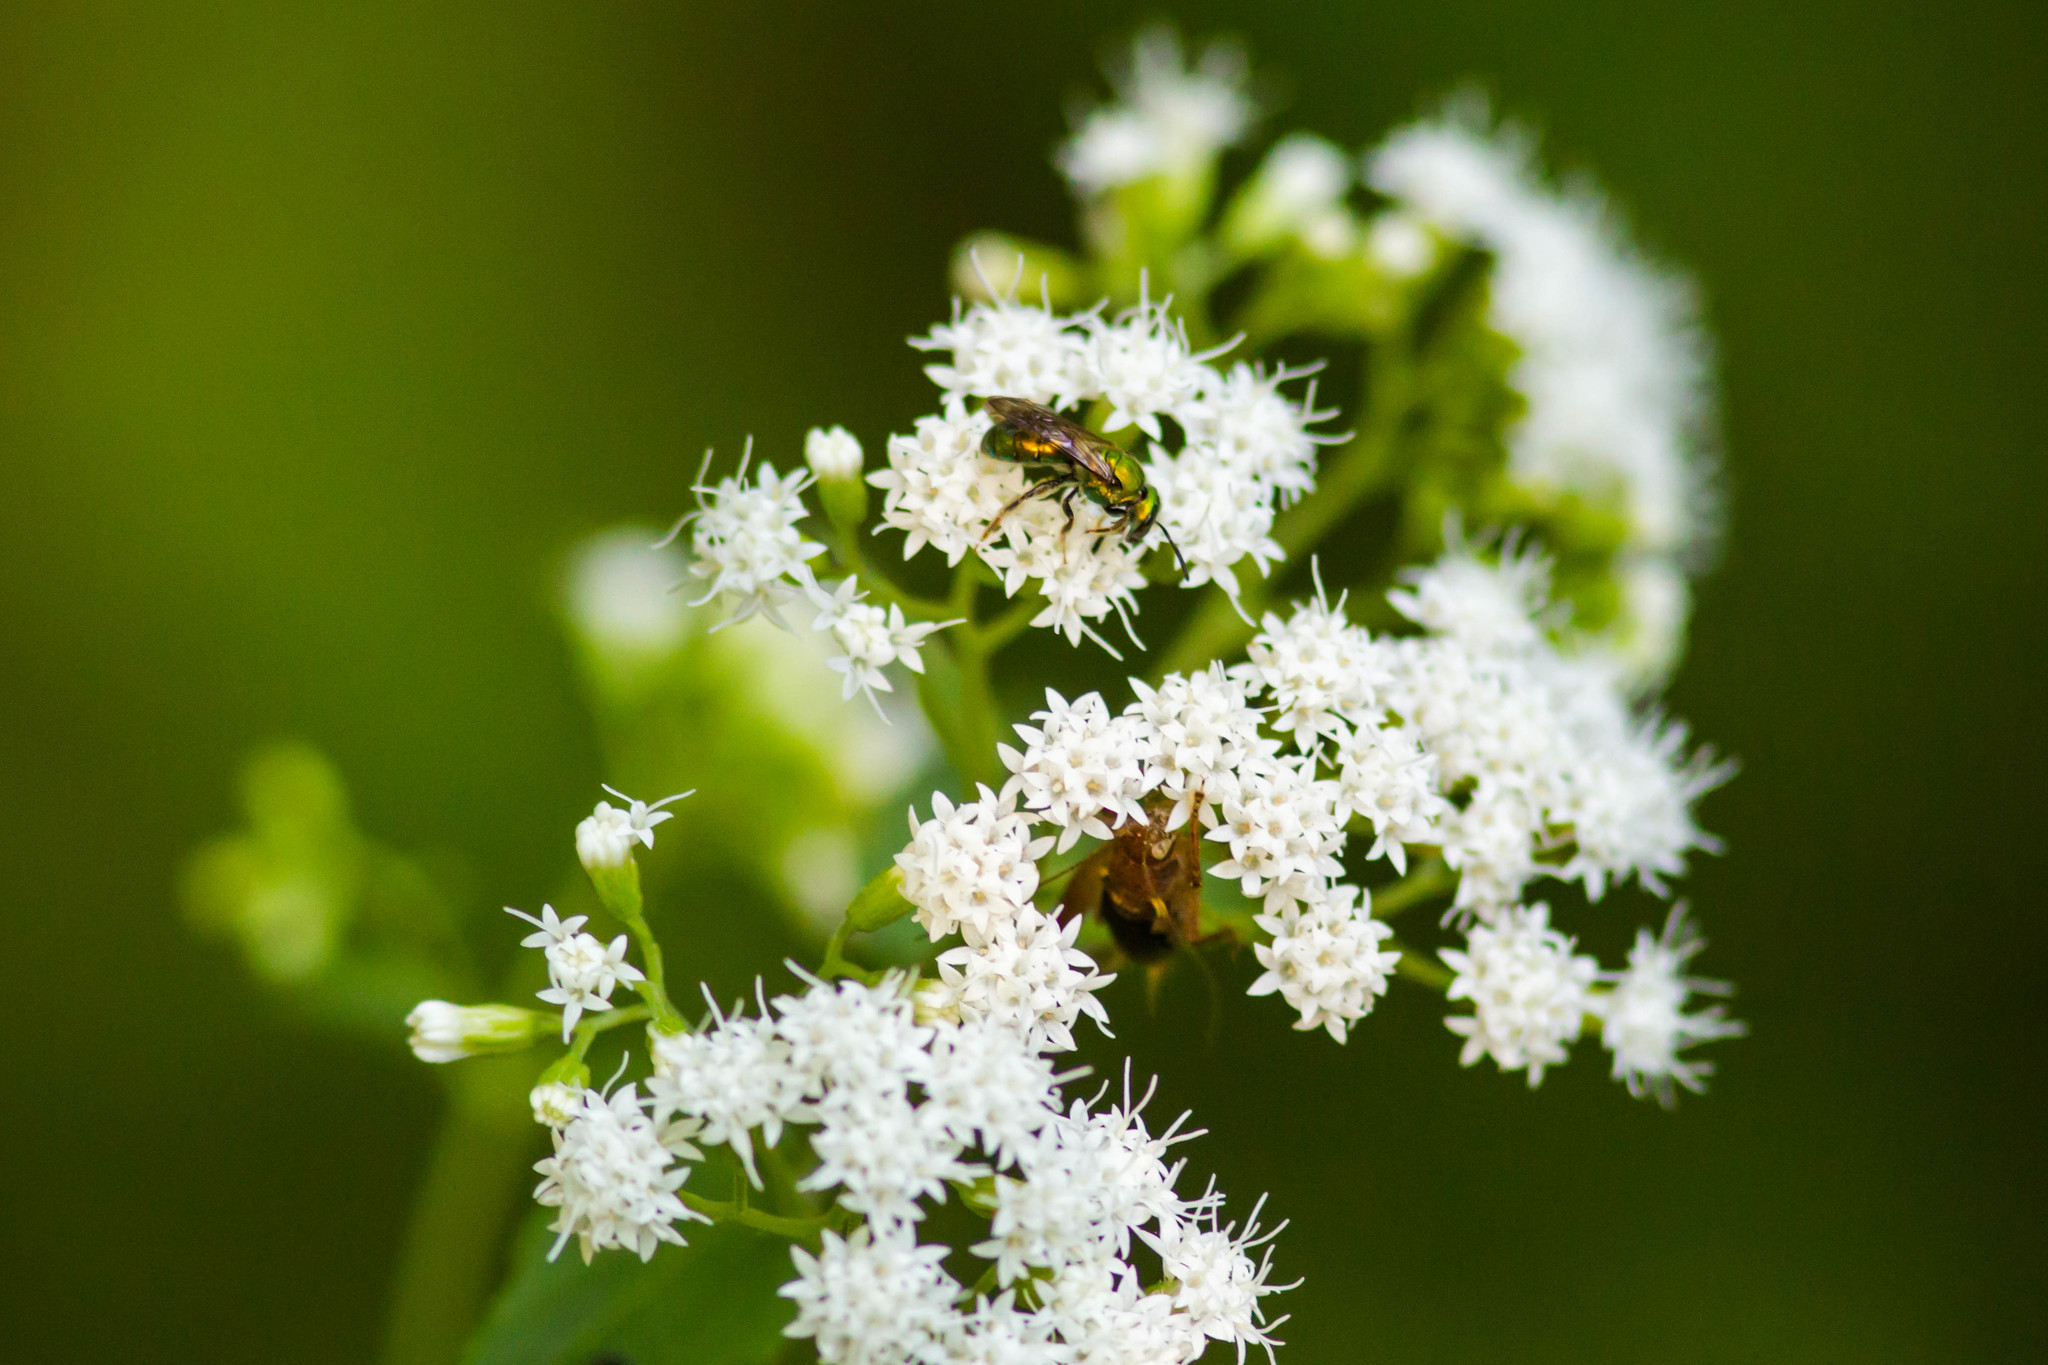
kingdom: Animalia
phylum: Arthropoda
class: Insecta
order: Hymenoptera
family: Halictidae
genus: Augochlora
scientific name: Augochlora pura
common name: Pure green sweat bee
